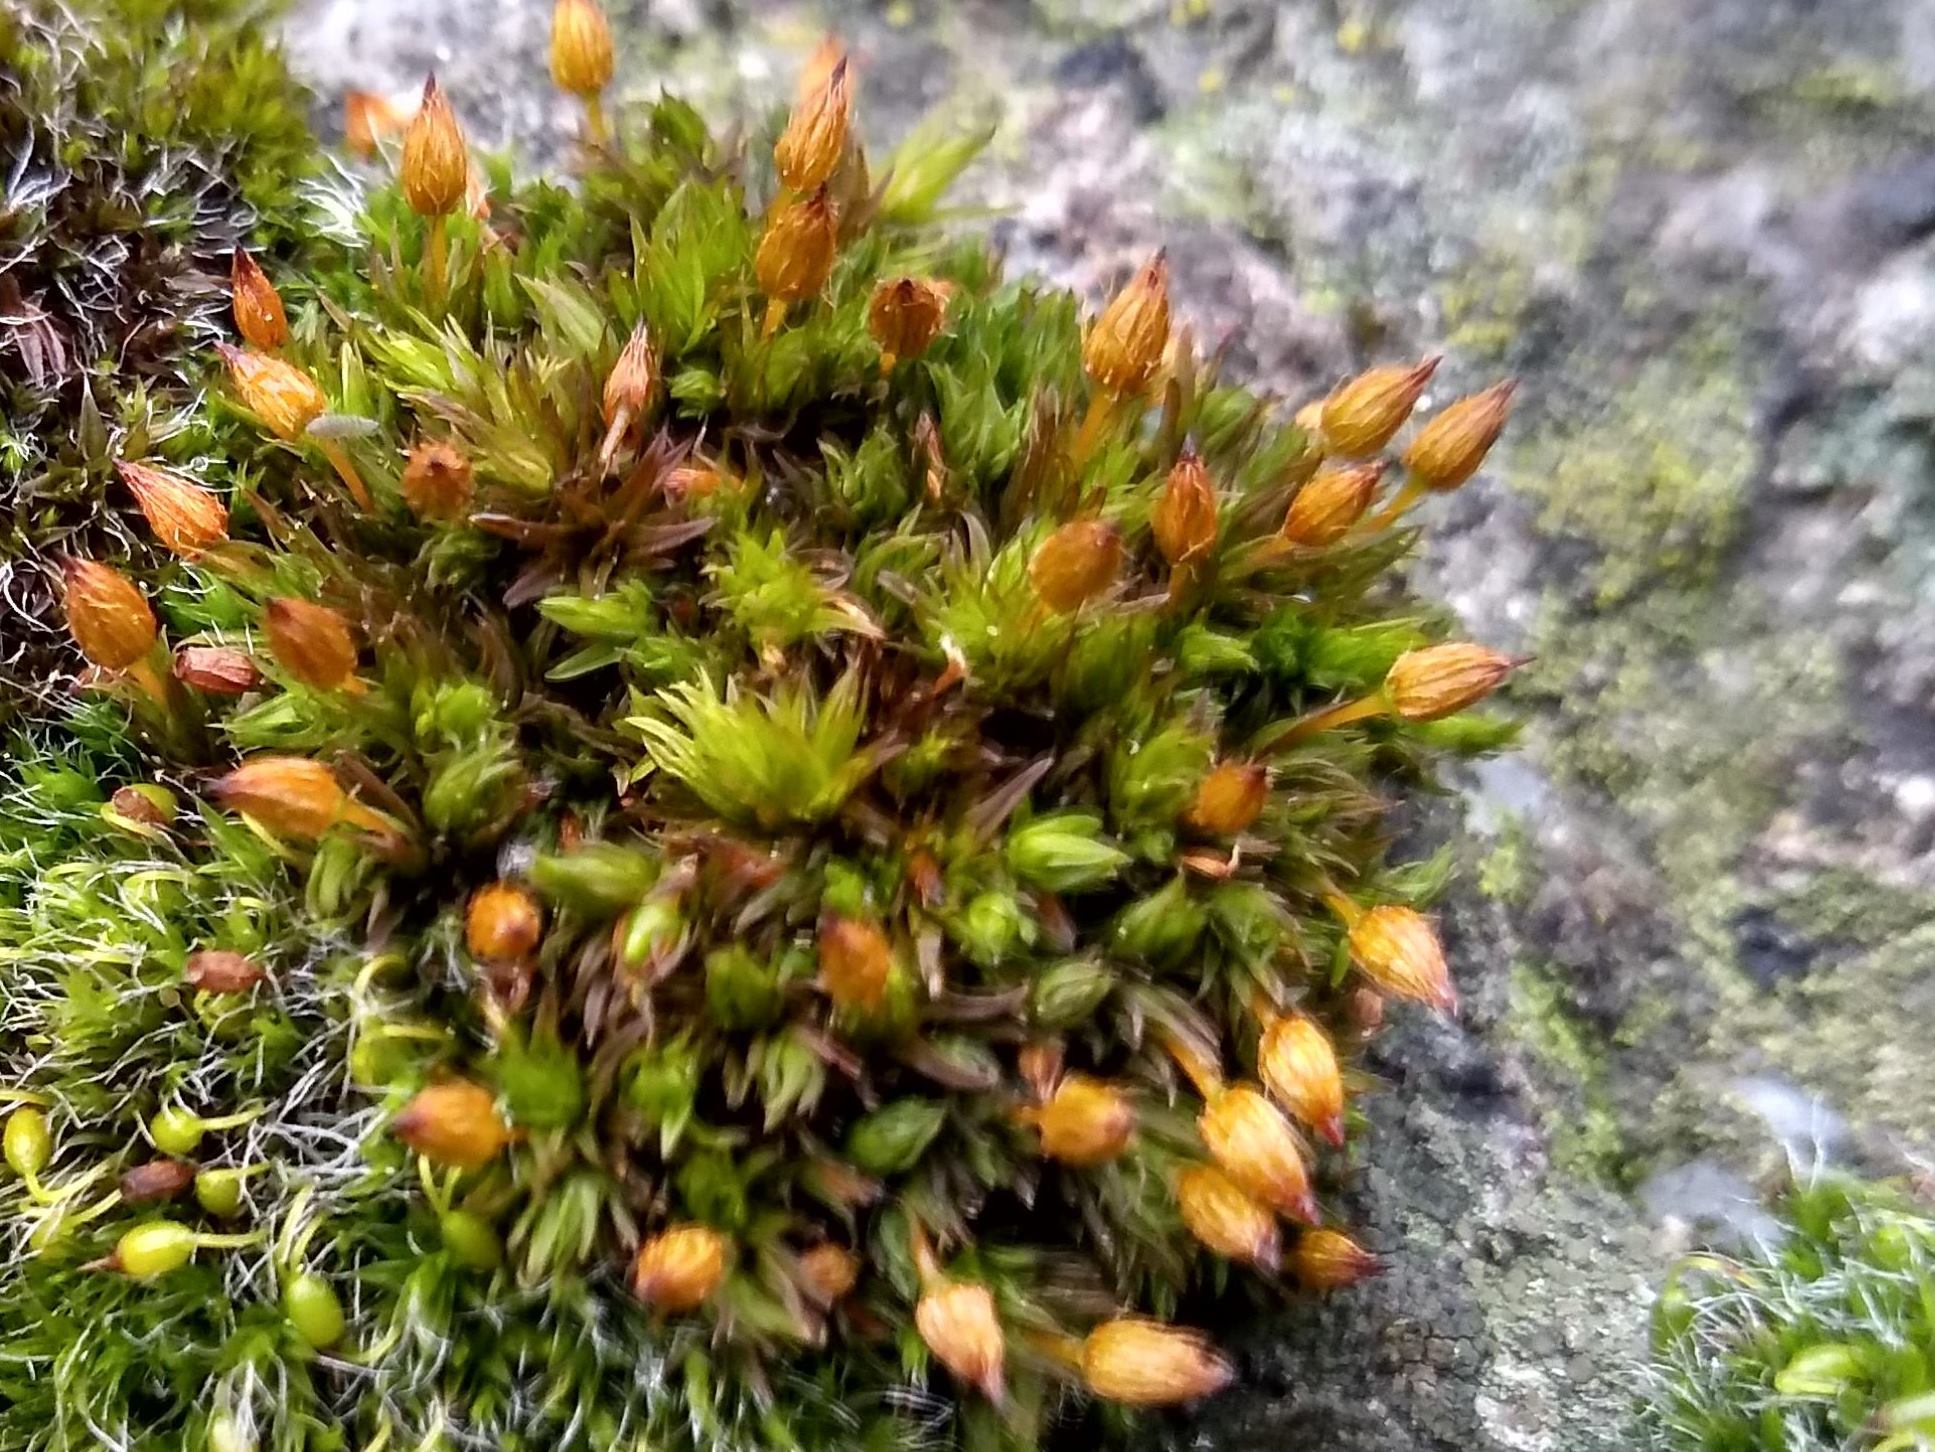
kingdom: Plantae
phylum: Bryophyta
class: Bryopsida
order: Orthotrichales
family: Orthotrichaceae
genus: Orthotrichum
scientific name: Orthotrichum anomalum
